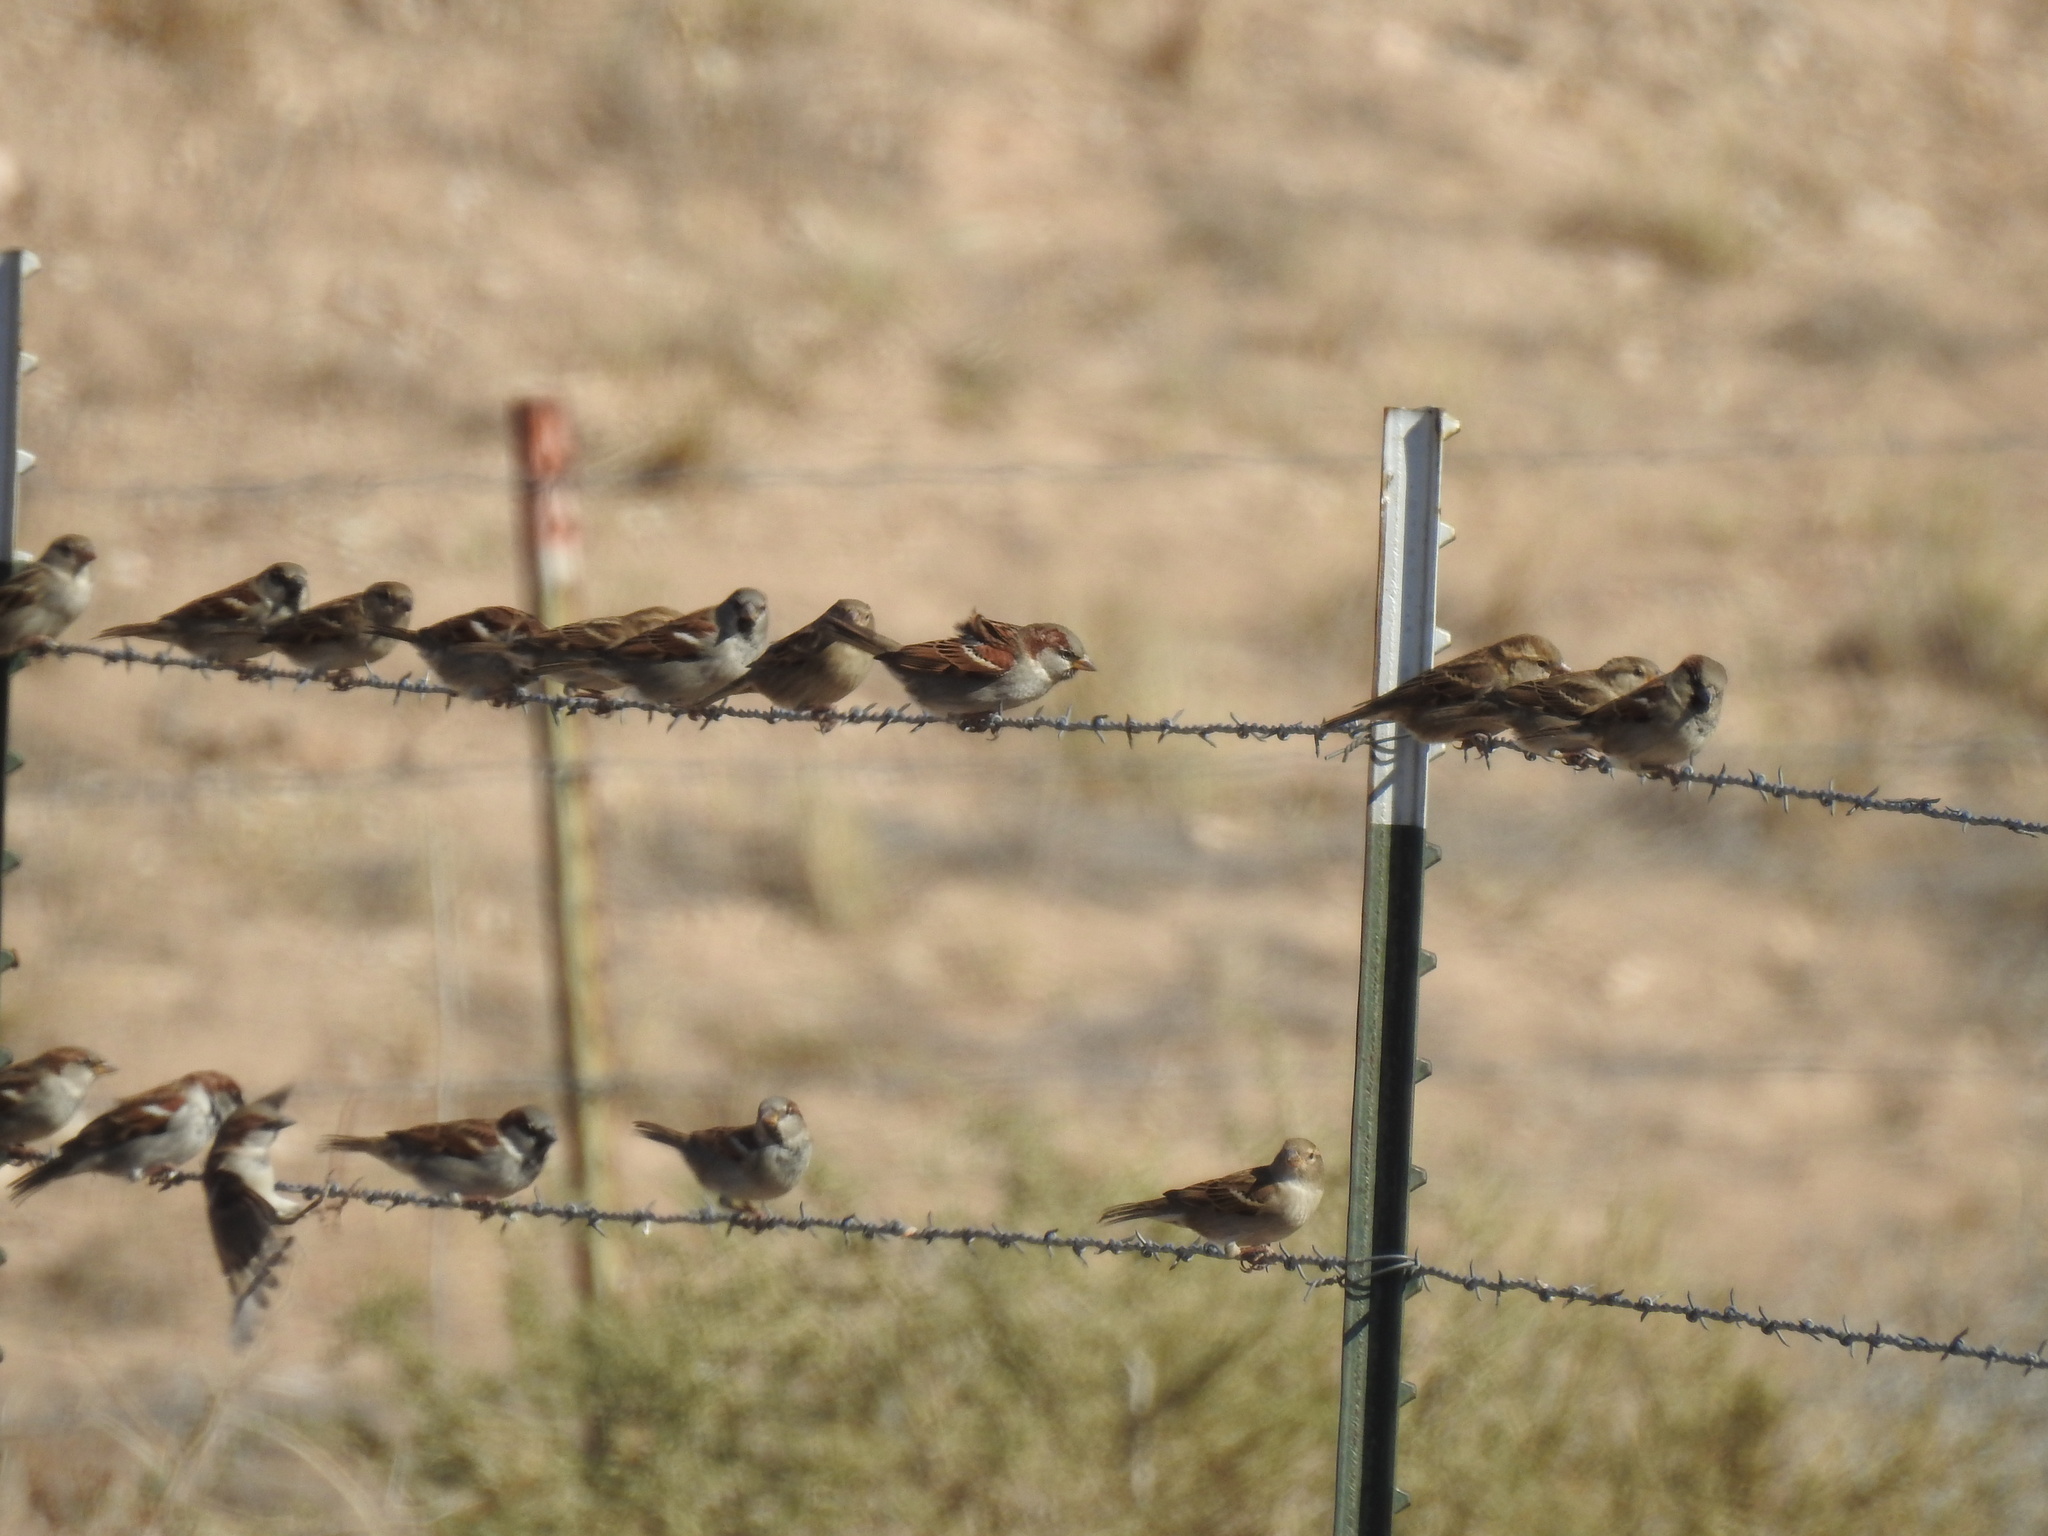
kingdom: Animalia
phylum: Chordata
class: Aves
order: Passeriformes
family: Passeridae
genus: Passer
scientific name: Passer domesticus
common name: House sparrow
